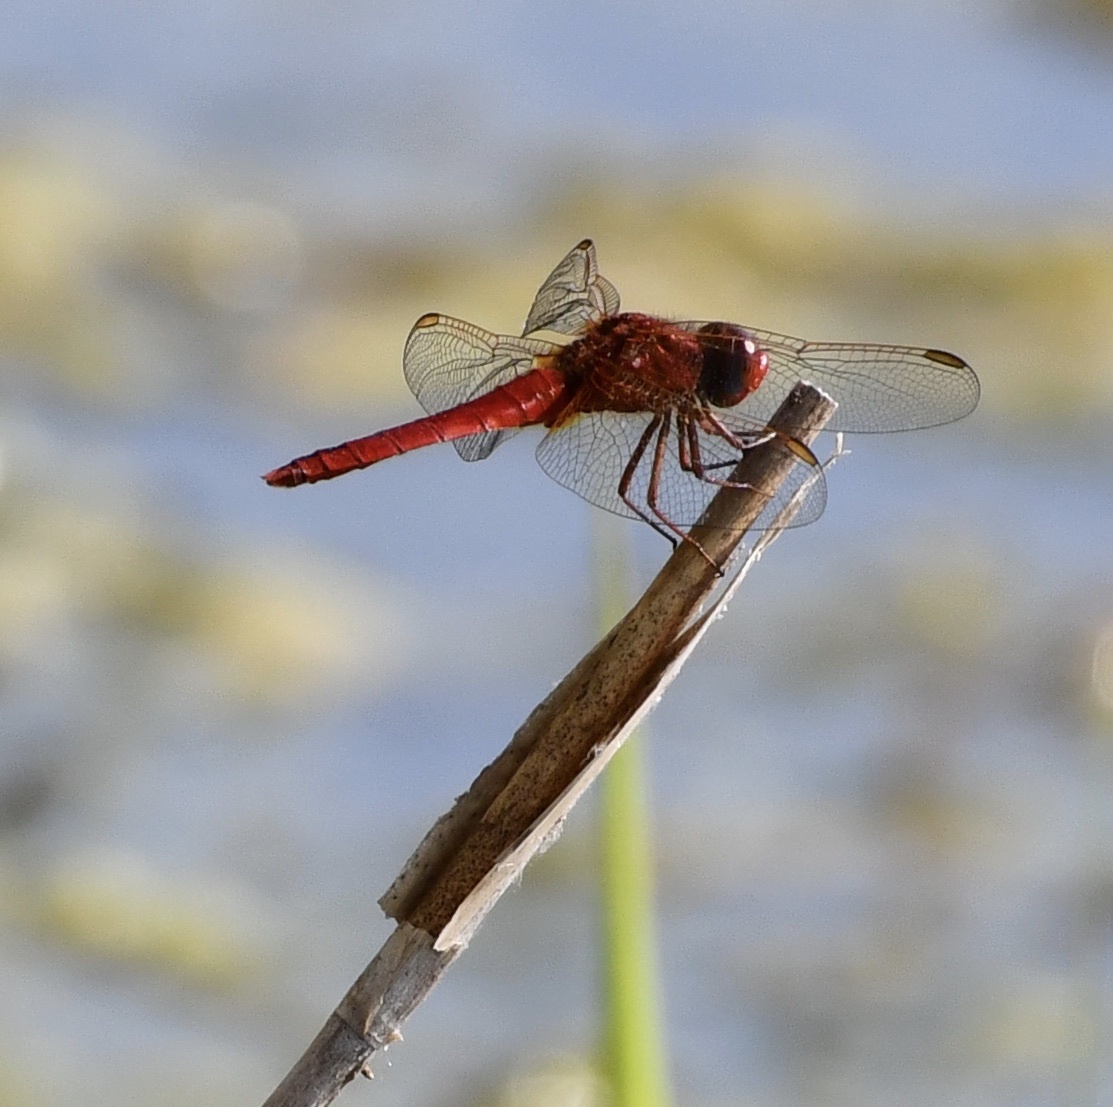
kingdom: Animalia
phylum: Arthropoda
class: Insecta
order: Odonata
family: Libellulidae
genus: Crocothemis
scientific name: Crocothemis erythraea
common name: Scarlet dragonfly
